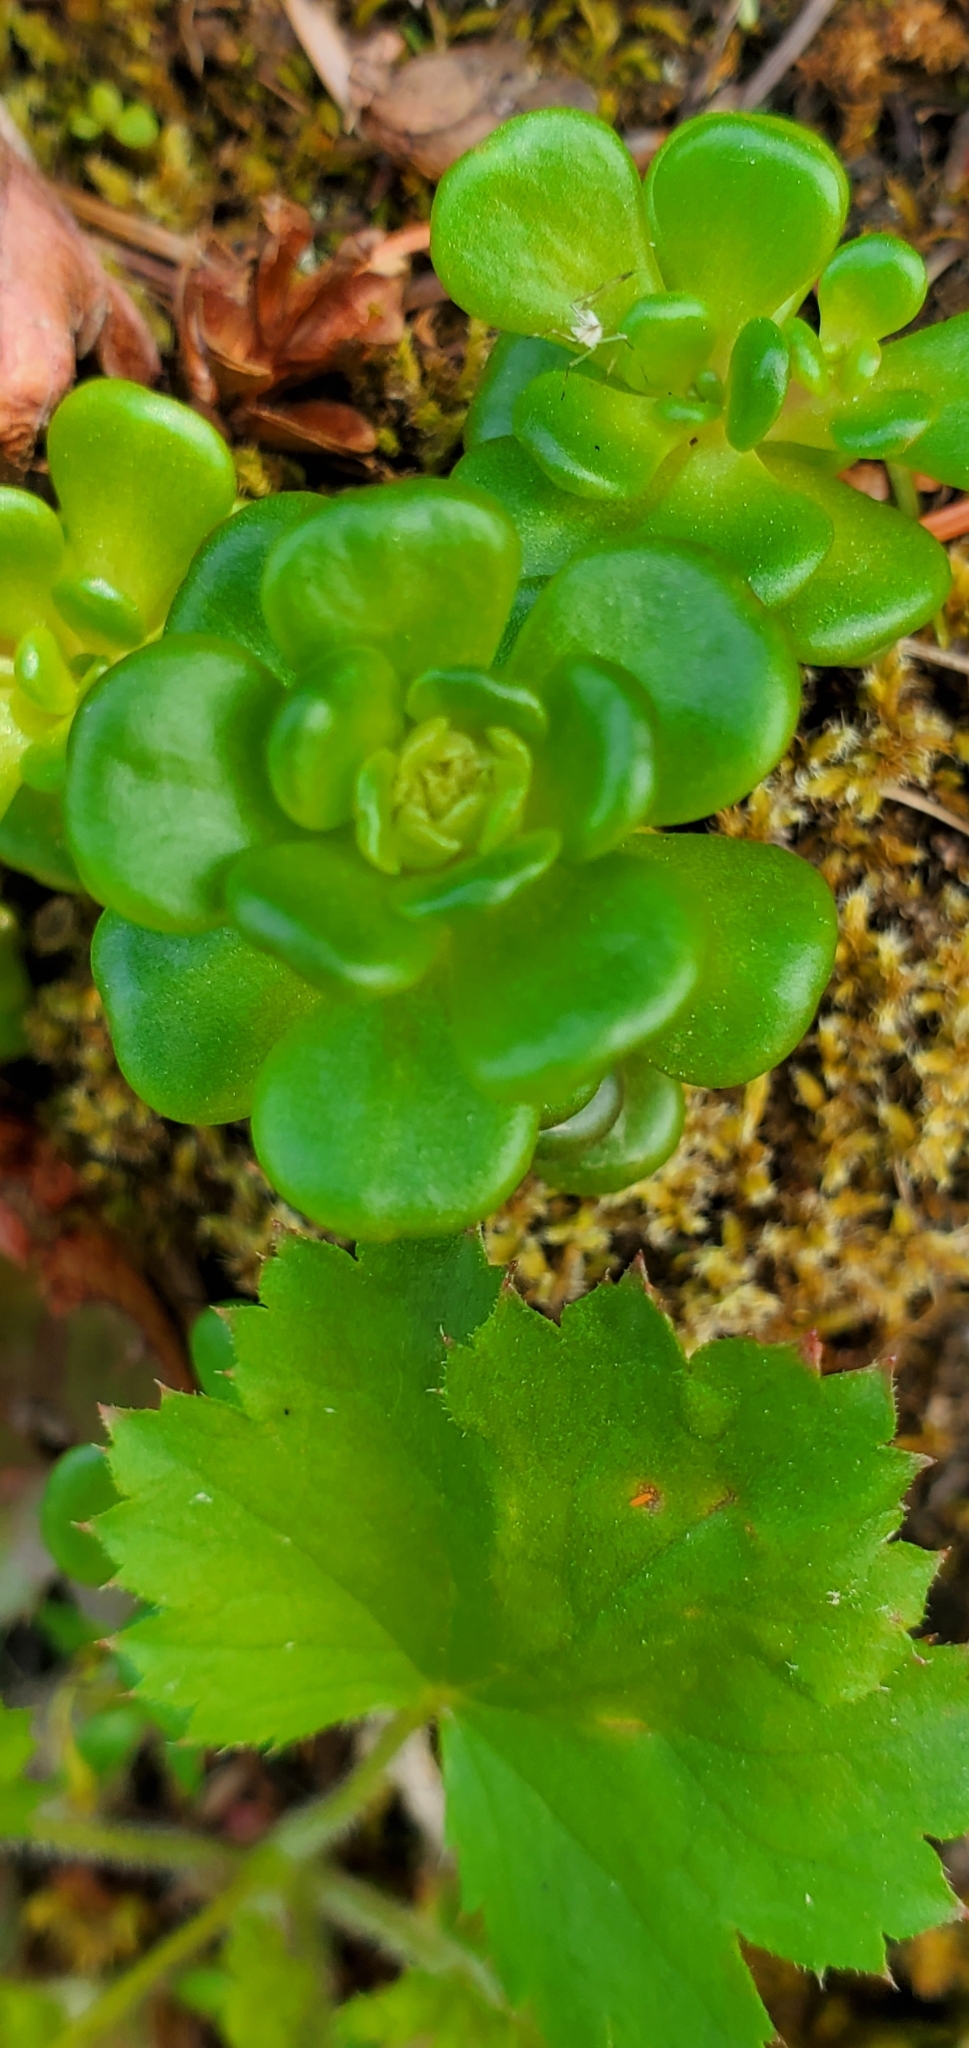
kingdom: Plantae
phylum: Tracheophyta
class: Magnoliopsida
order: Saxifragales
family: Crassulaceae
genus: Sedum
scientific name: Sedum oreganum
